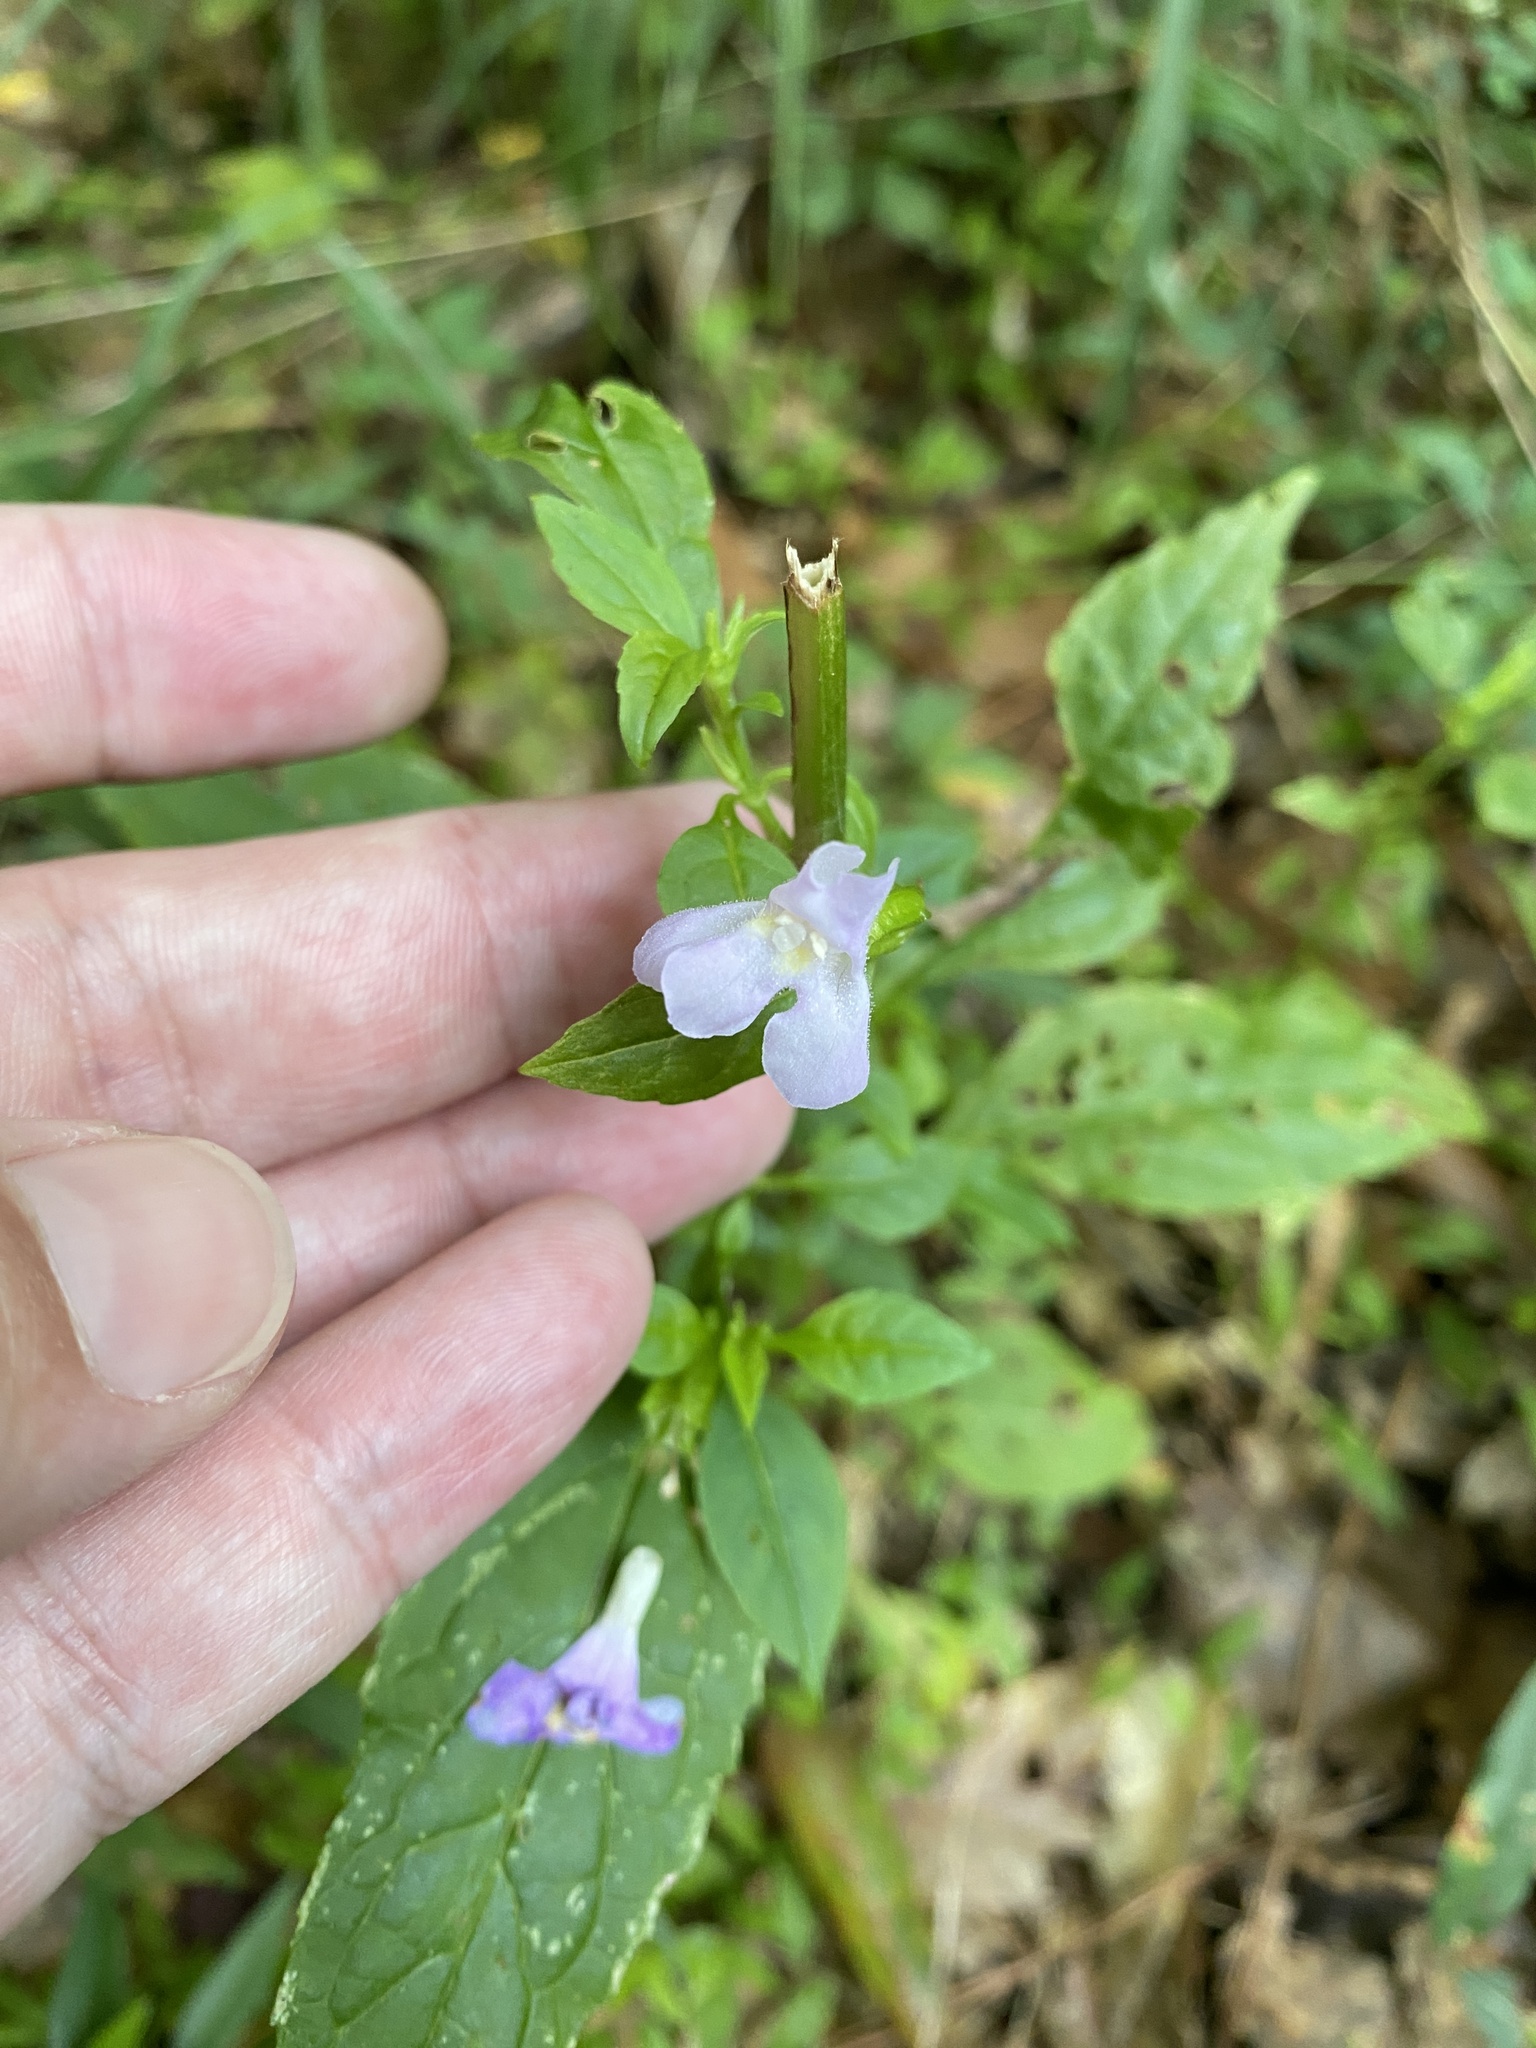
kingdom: Plantae
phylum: Tracheophyta
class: Magnoliopsida
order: Lamiales
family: Phrymaceae
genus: Mimulus
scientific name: Mimulus alatus
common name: Sharp-wing monkey-flower
